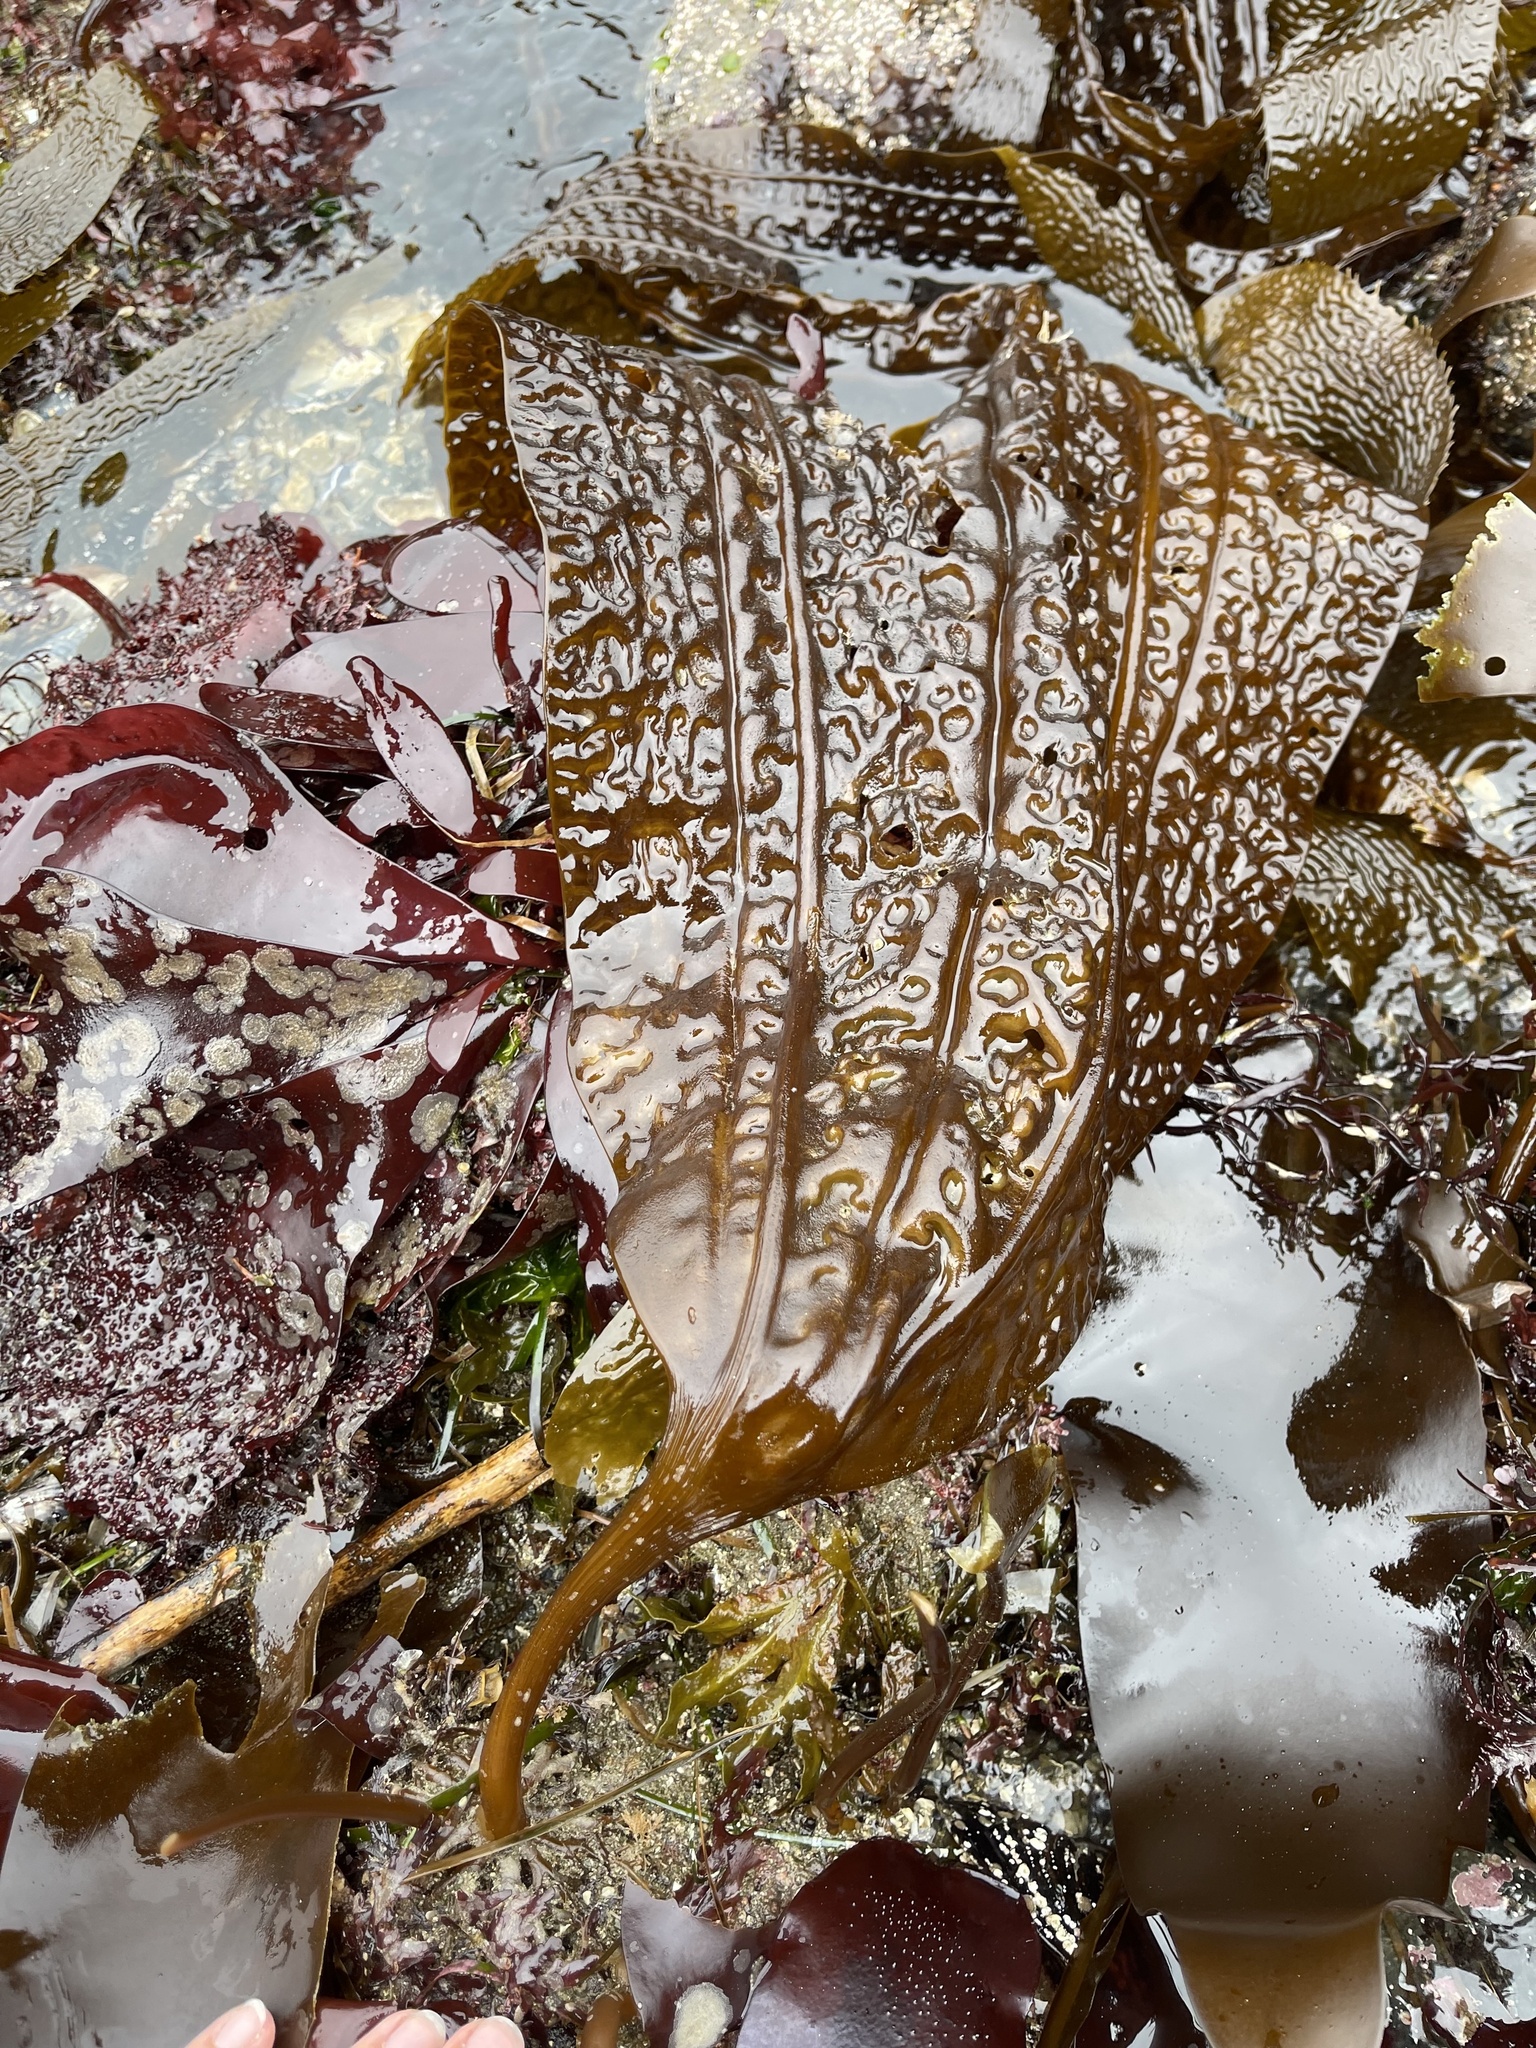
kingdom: Chromista
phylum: Ochrophyta
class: Phaeophyceae
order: Laminariales
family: Costariaceae
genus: Costaria
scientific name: Costaria costata
